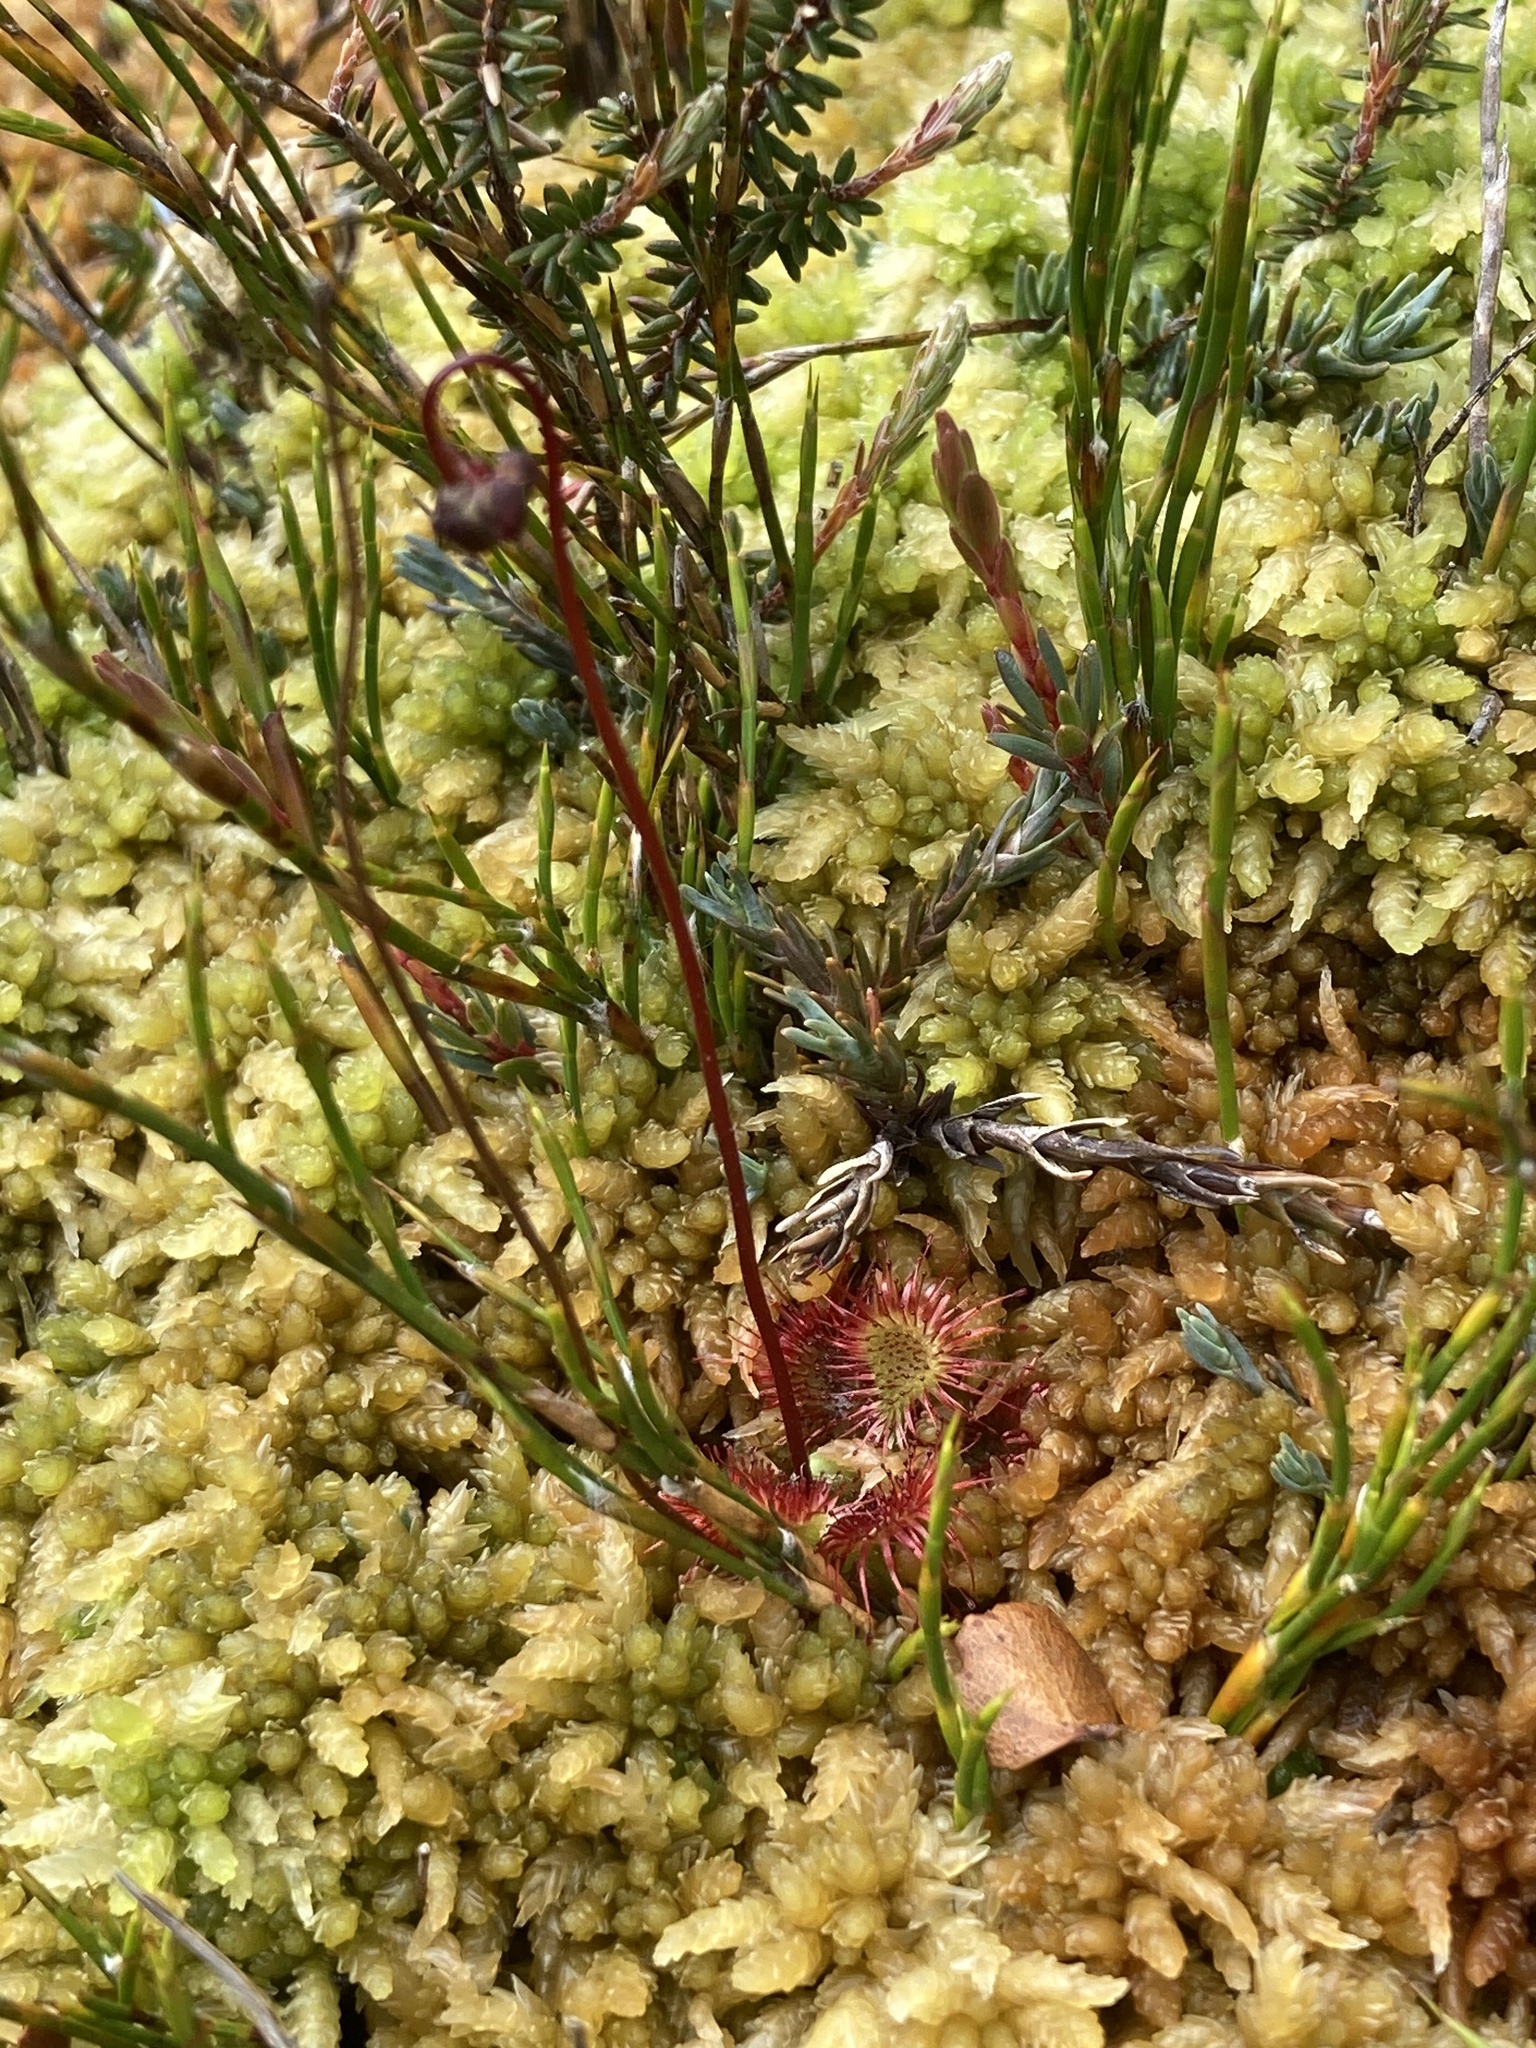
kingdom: Plantae
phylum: Tracheophyta
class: Magnoliopsida
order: Caryophyllales
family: Droseraceae
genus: Drosera
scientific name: Drosera spatulata
